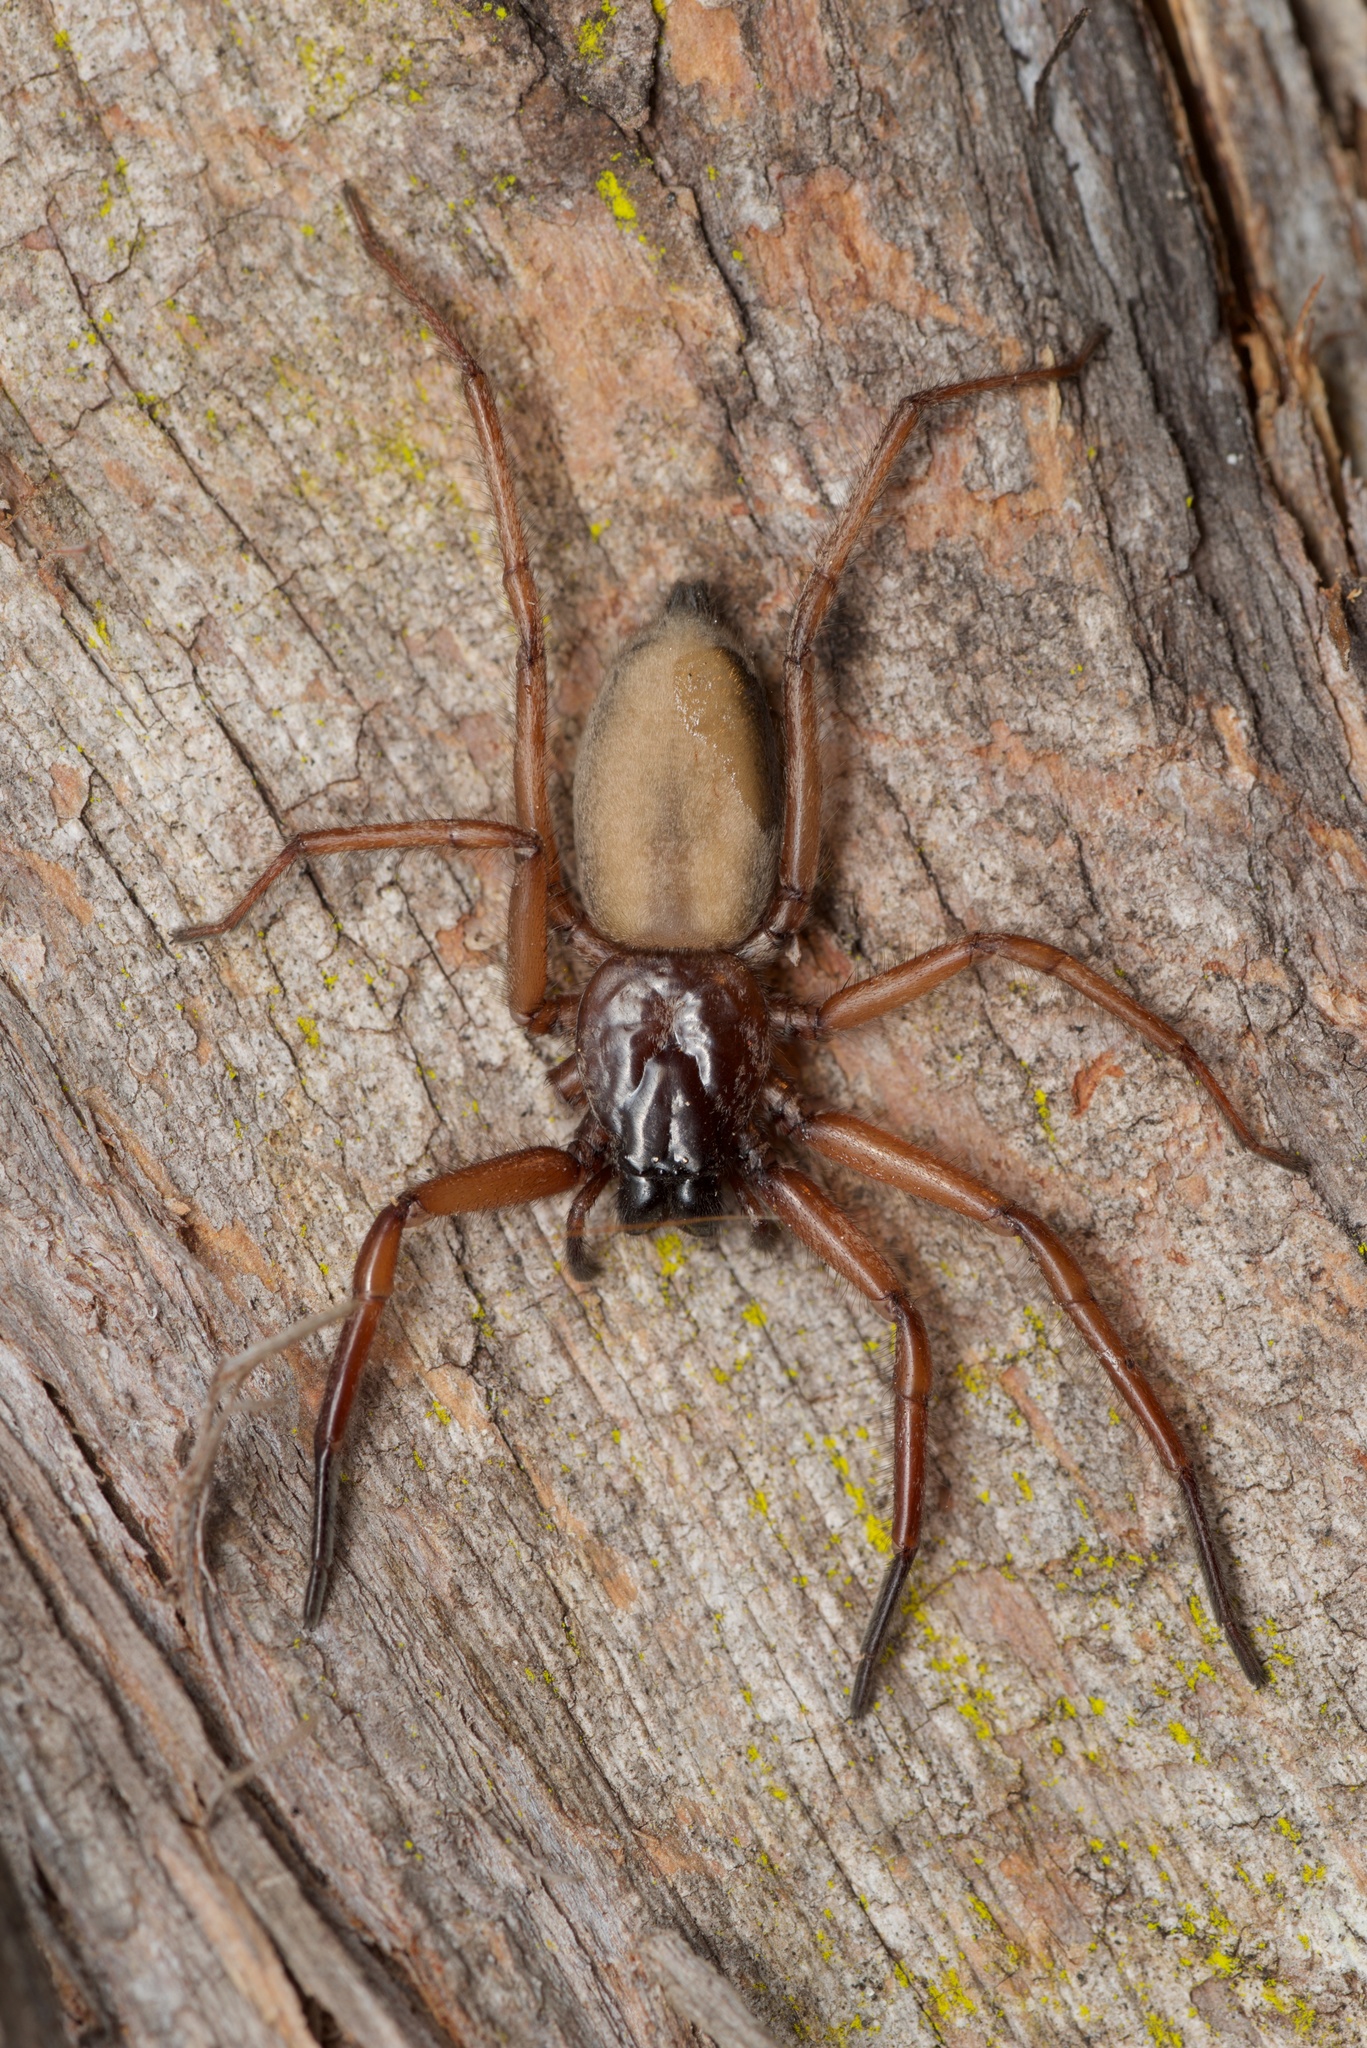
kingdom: Animalia
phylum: Arthropoda
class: Arachnida
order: Araneae
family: Trochanteriidae
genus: Hemicloea
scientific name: Hemicloea rogenhoferi
